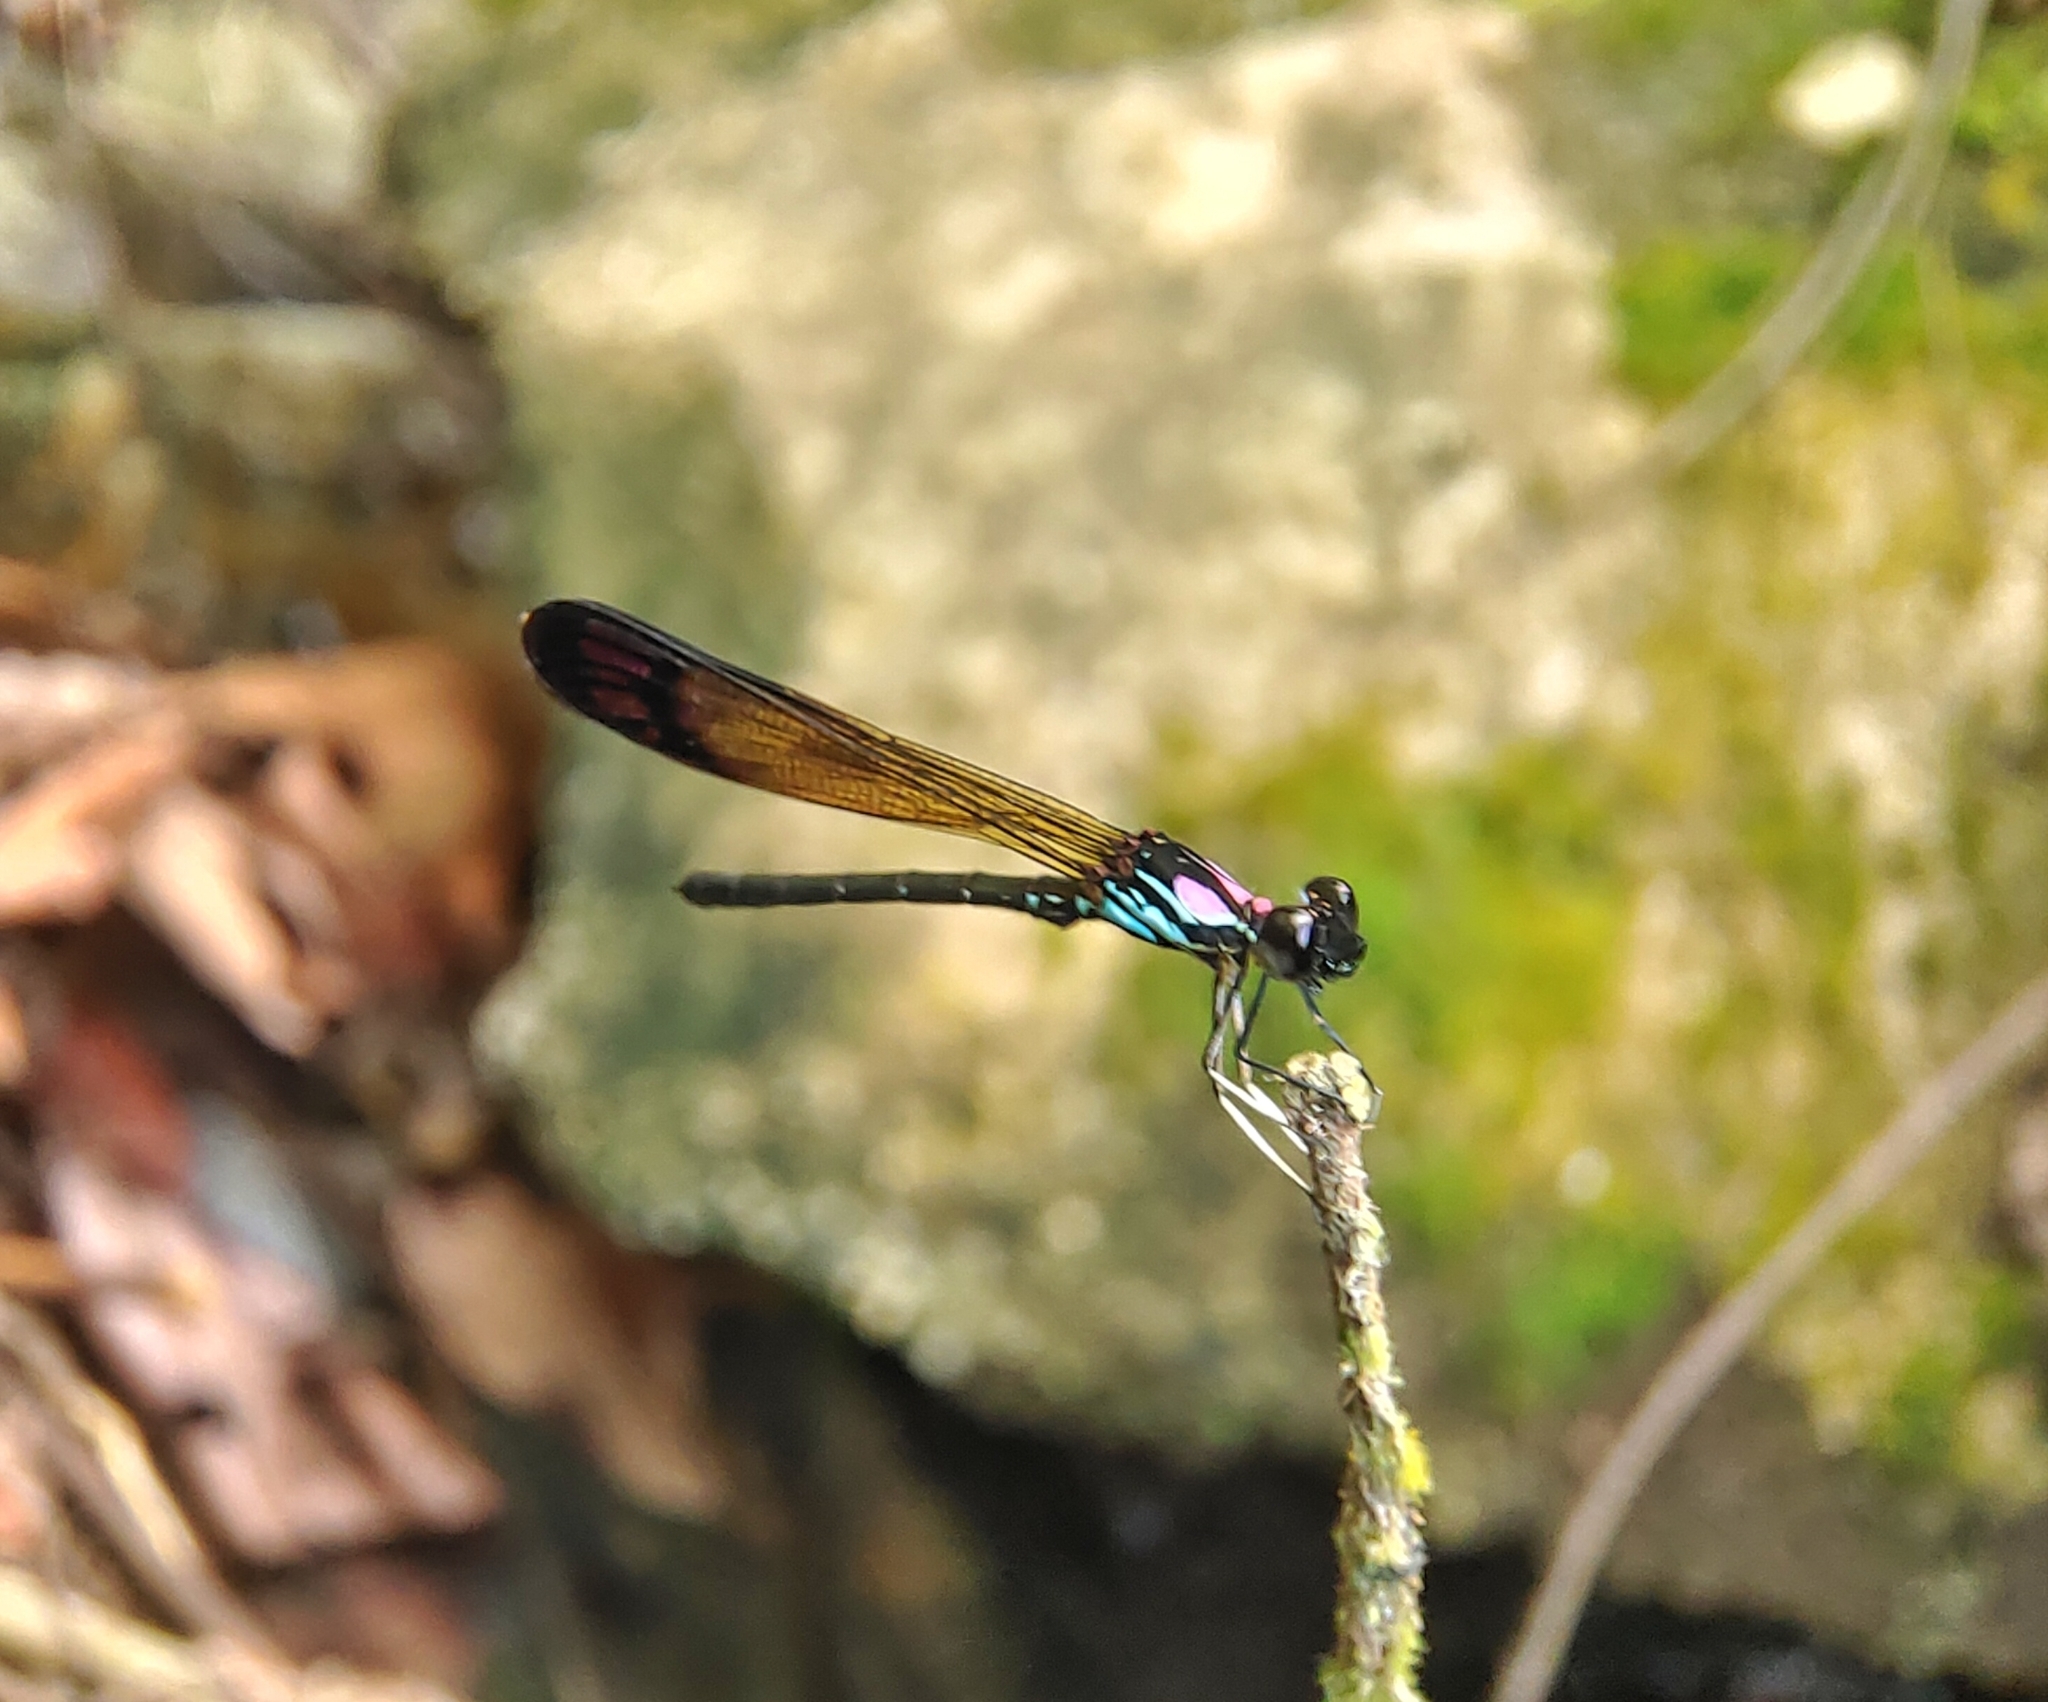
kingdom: Animalia
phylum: Arthropoda
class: Insecta
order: Odonata
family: Chlorocyphidae
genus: Heliocypha
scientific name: Heliocypha biforata
